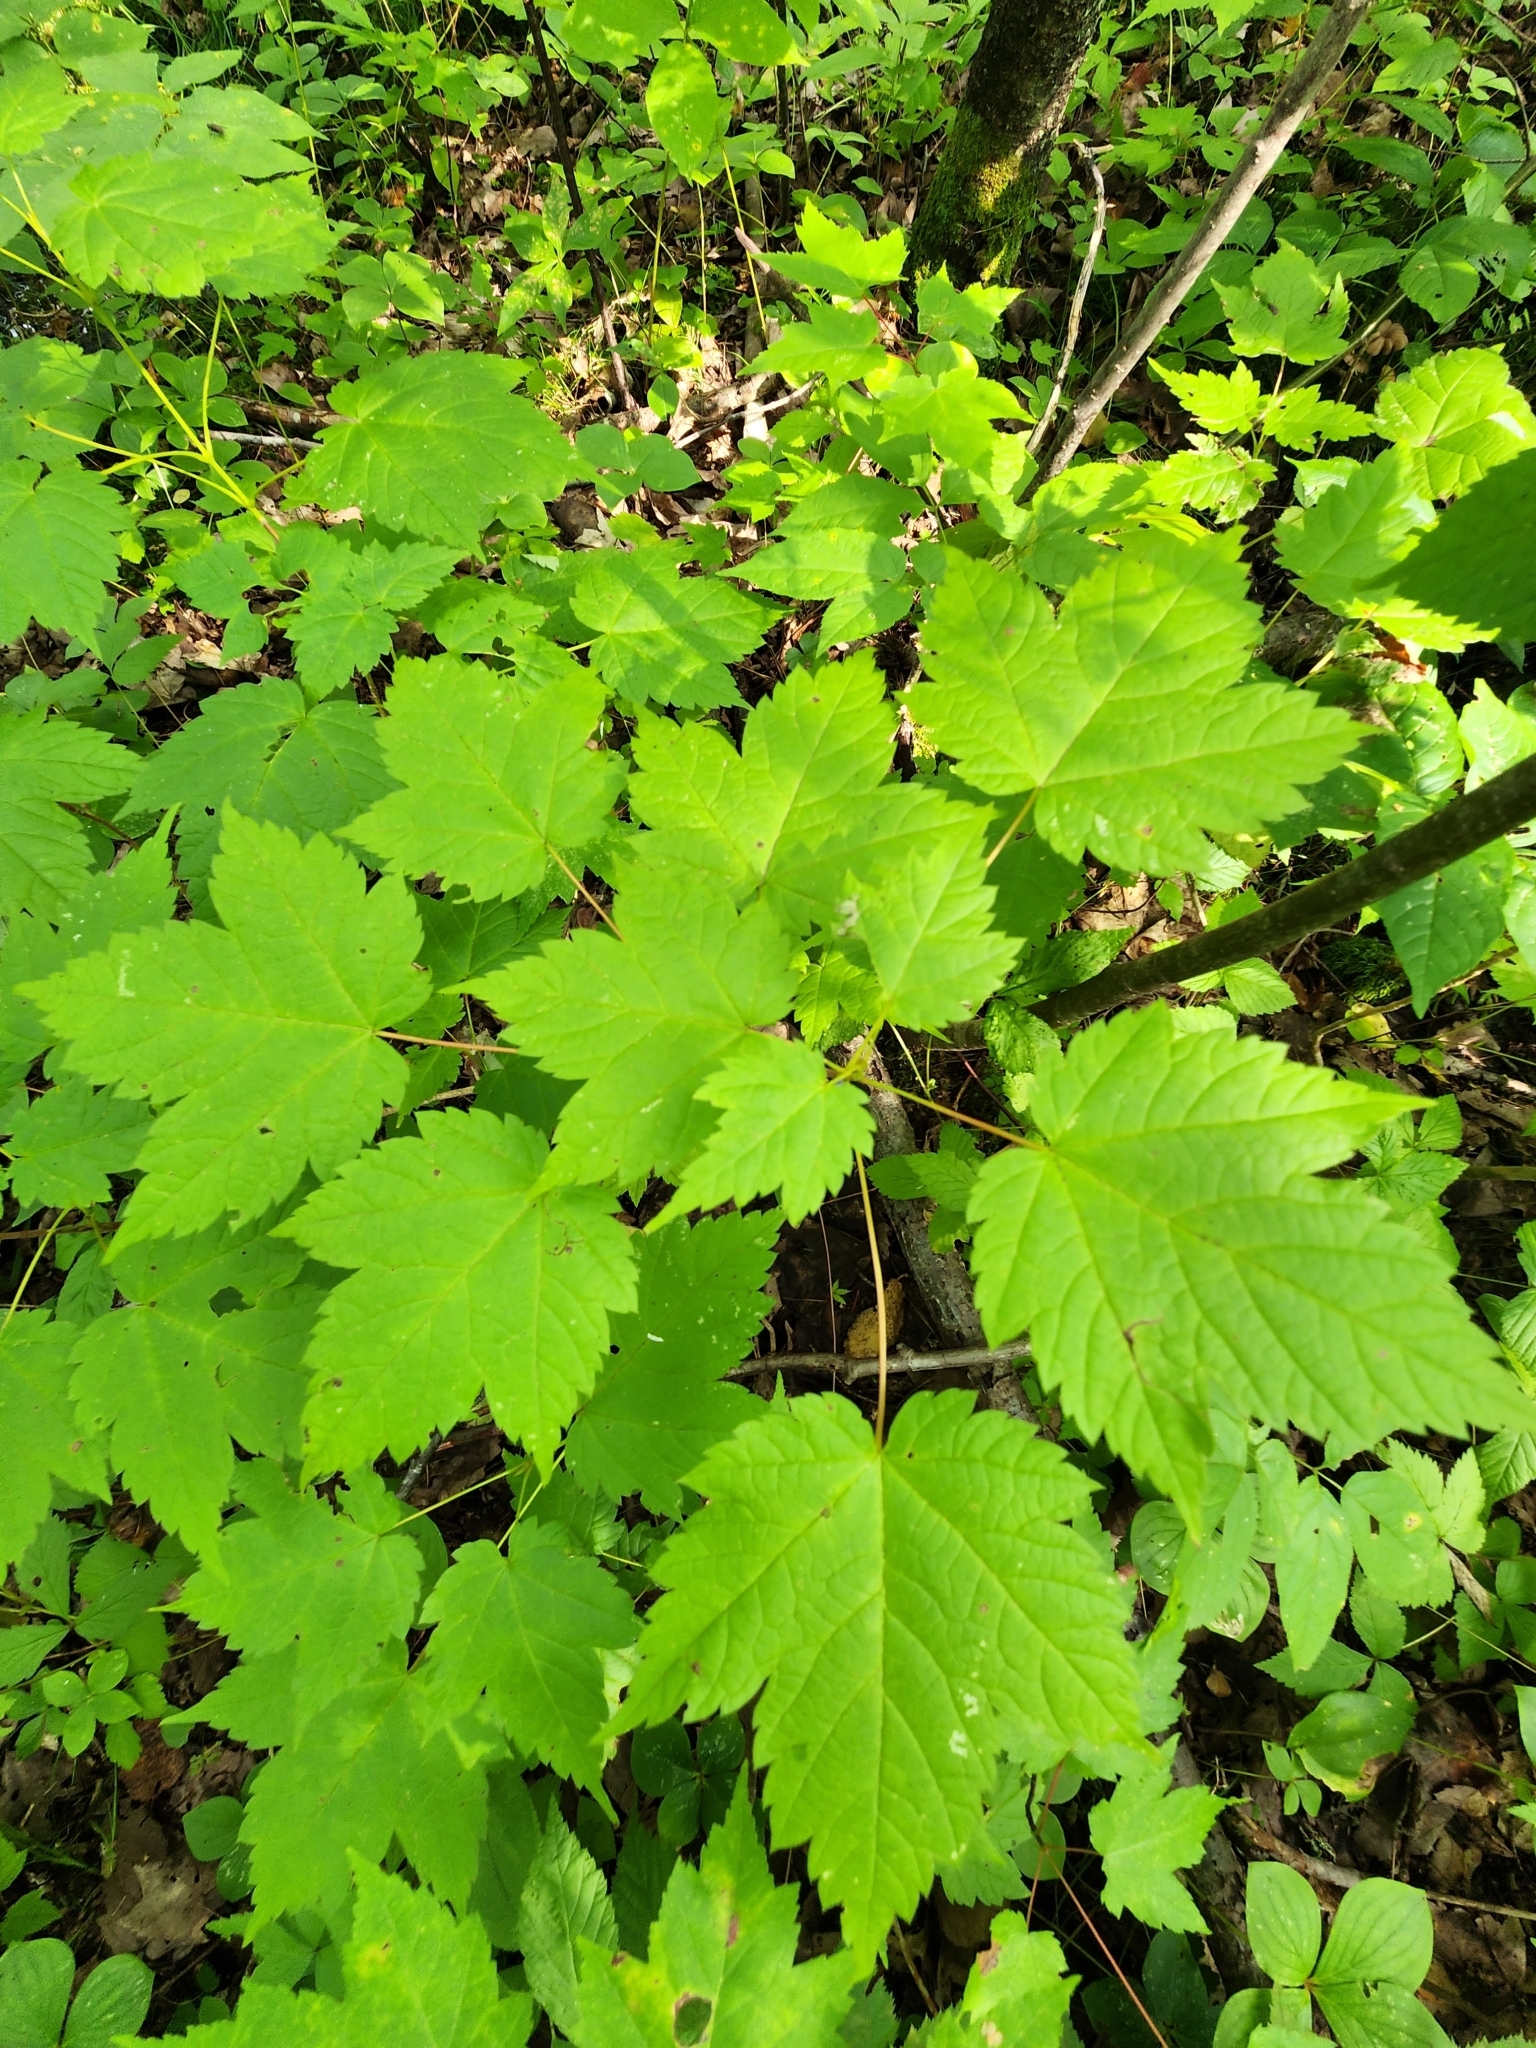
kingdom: Plantae
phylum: Tracheophyta
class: Magnoliopsida
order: Sapindales
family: Sapindaceae
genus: Acer
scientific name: Acer spicatum
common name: Mountain maple
